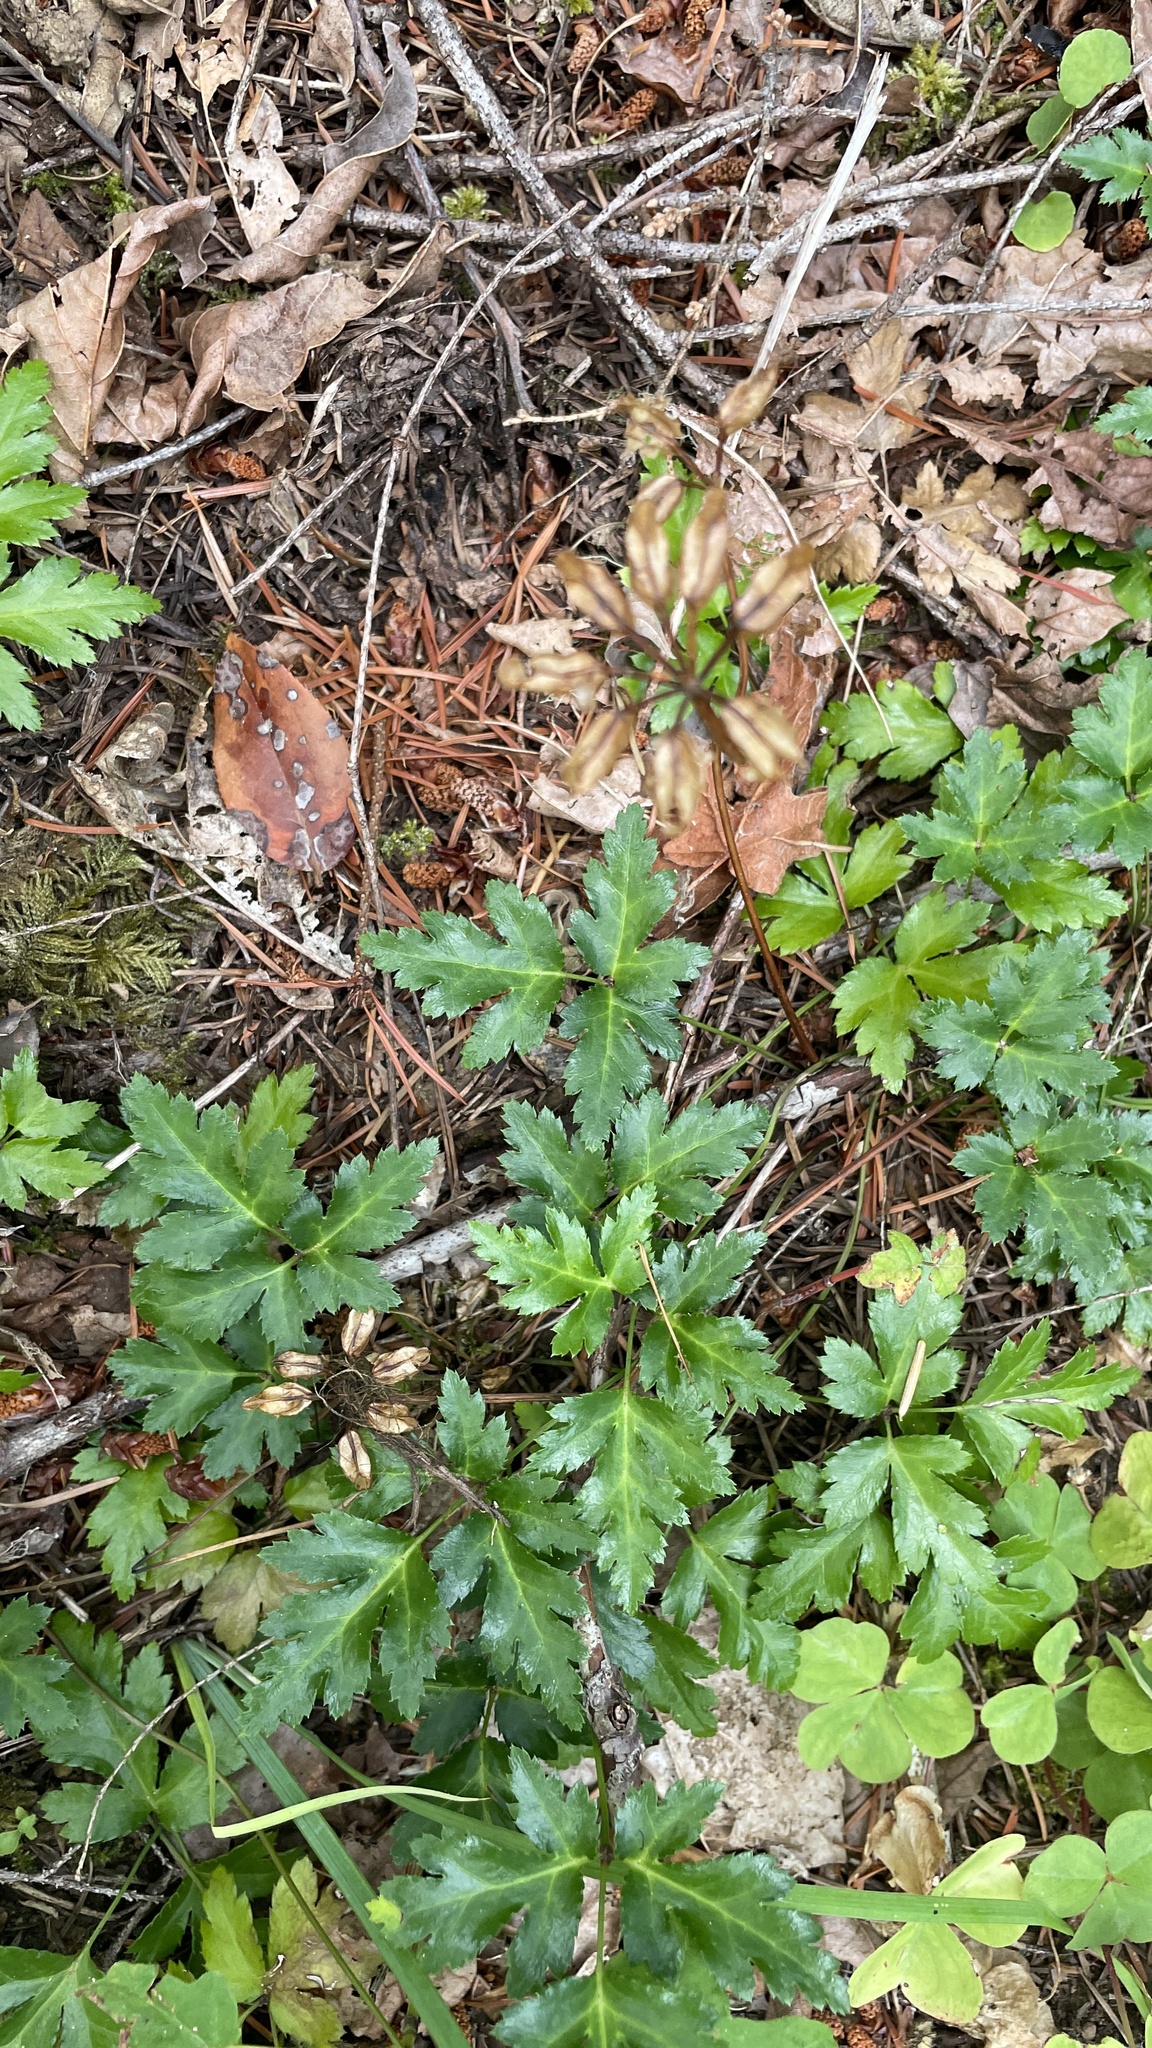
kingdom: Plantae
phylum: Tracheophyta
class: Magnoliopsida
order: Ranunculales
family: Ranunculaceae
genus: Coptis
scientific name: Coptis laciniata
